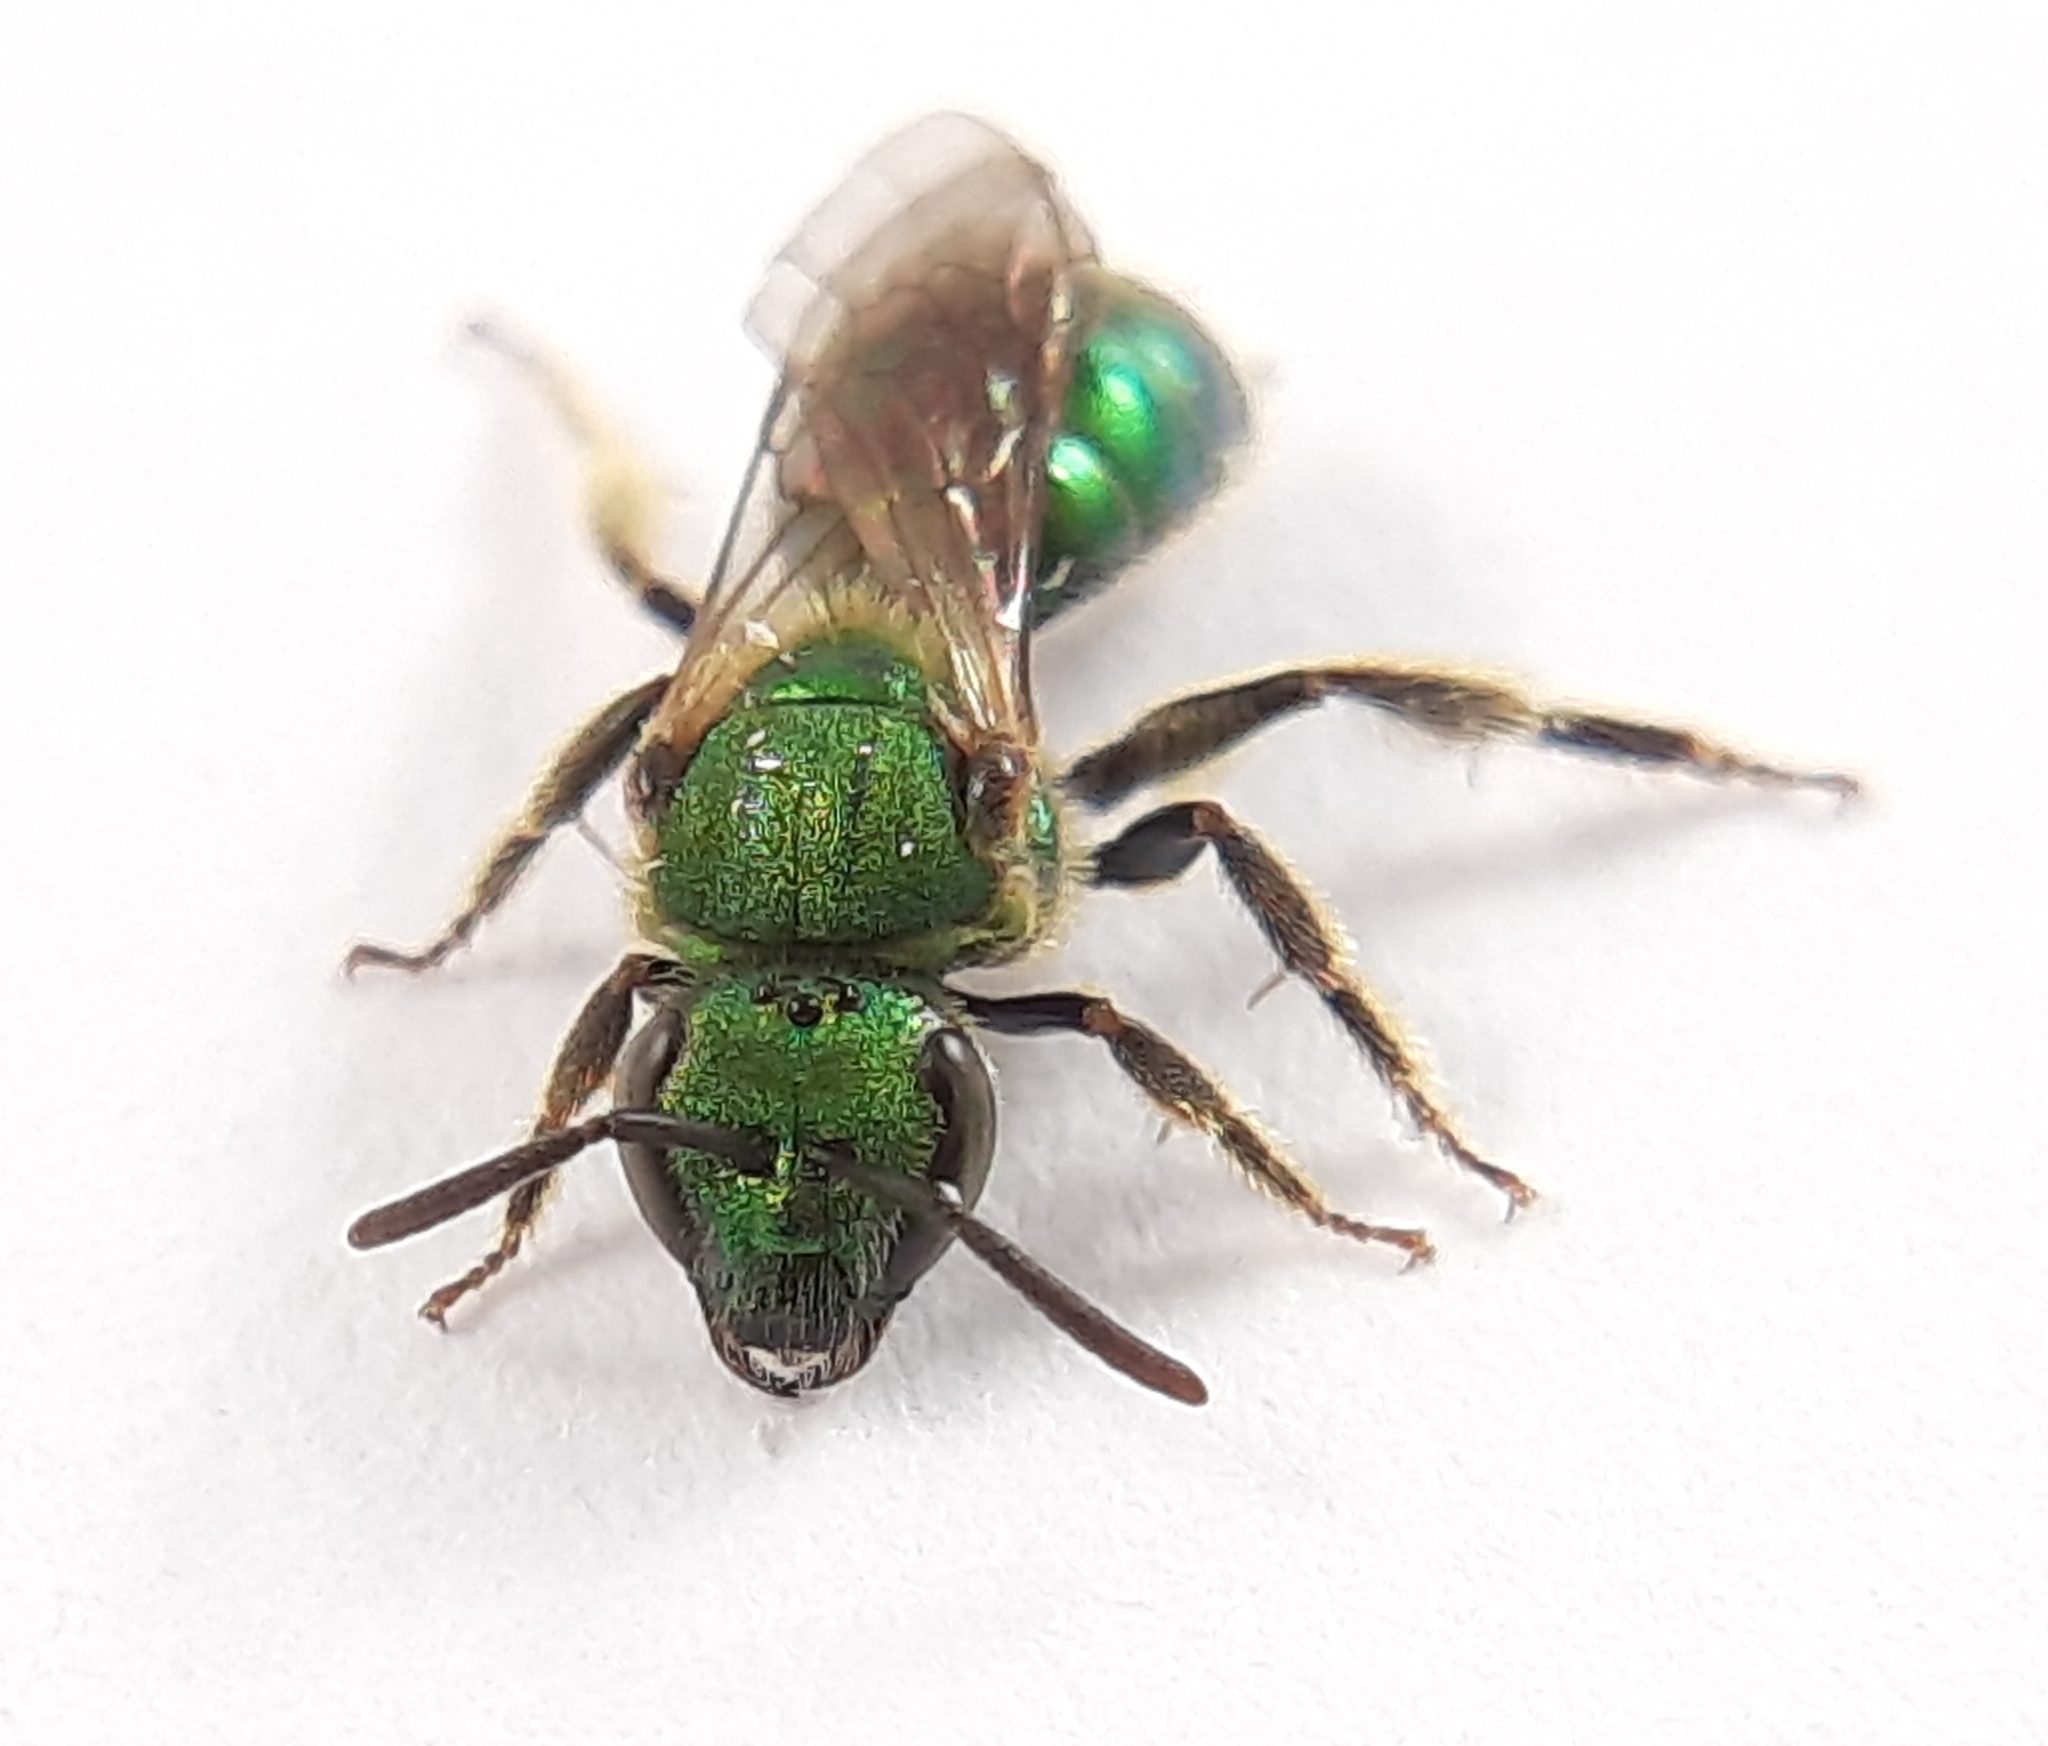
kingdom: Animalia
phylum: Arthropoda
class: Insecta
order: Hymenoptera
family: Halictidae
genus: Augochlorella
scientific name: Augochlorella aurata
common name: Golden sweat bee
